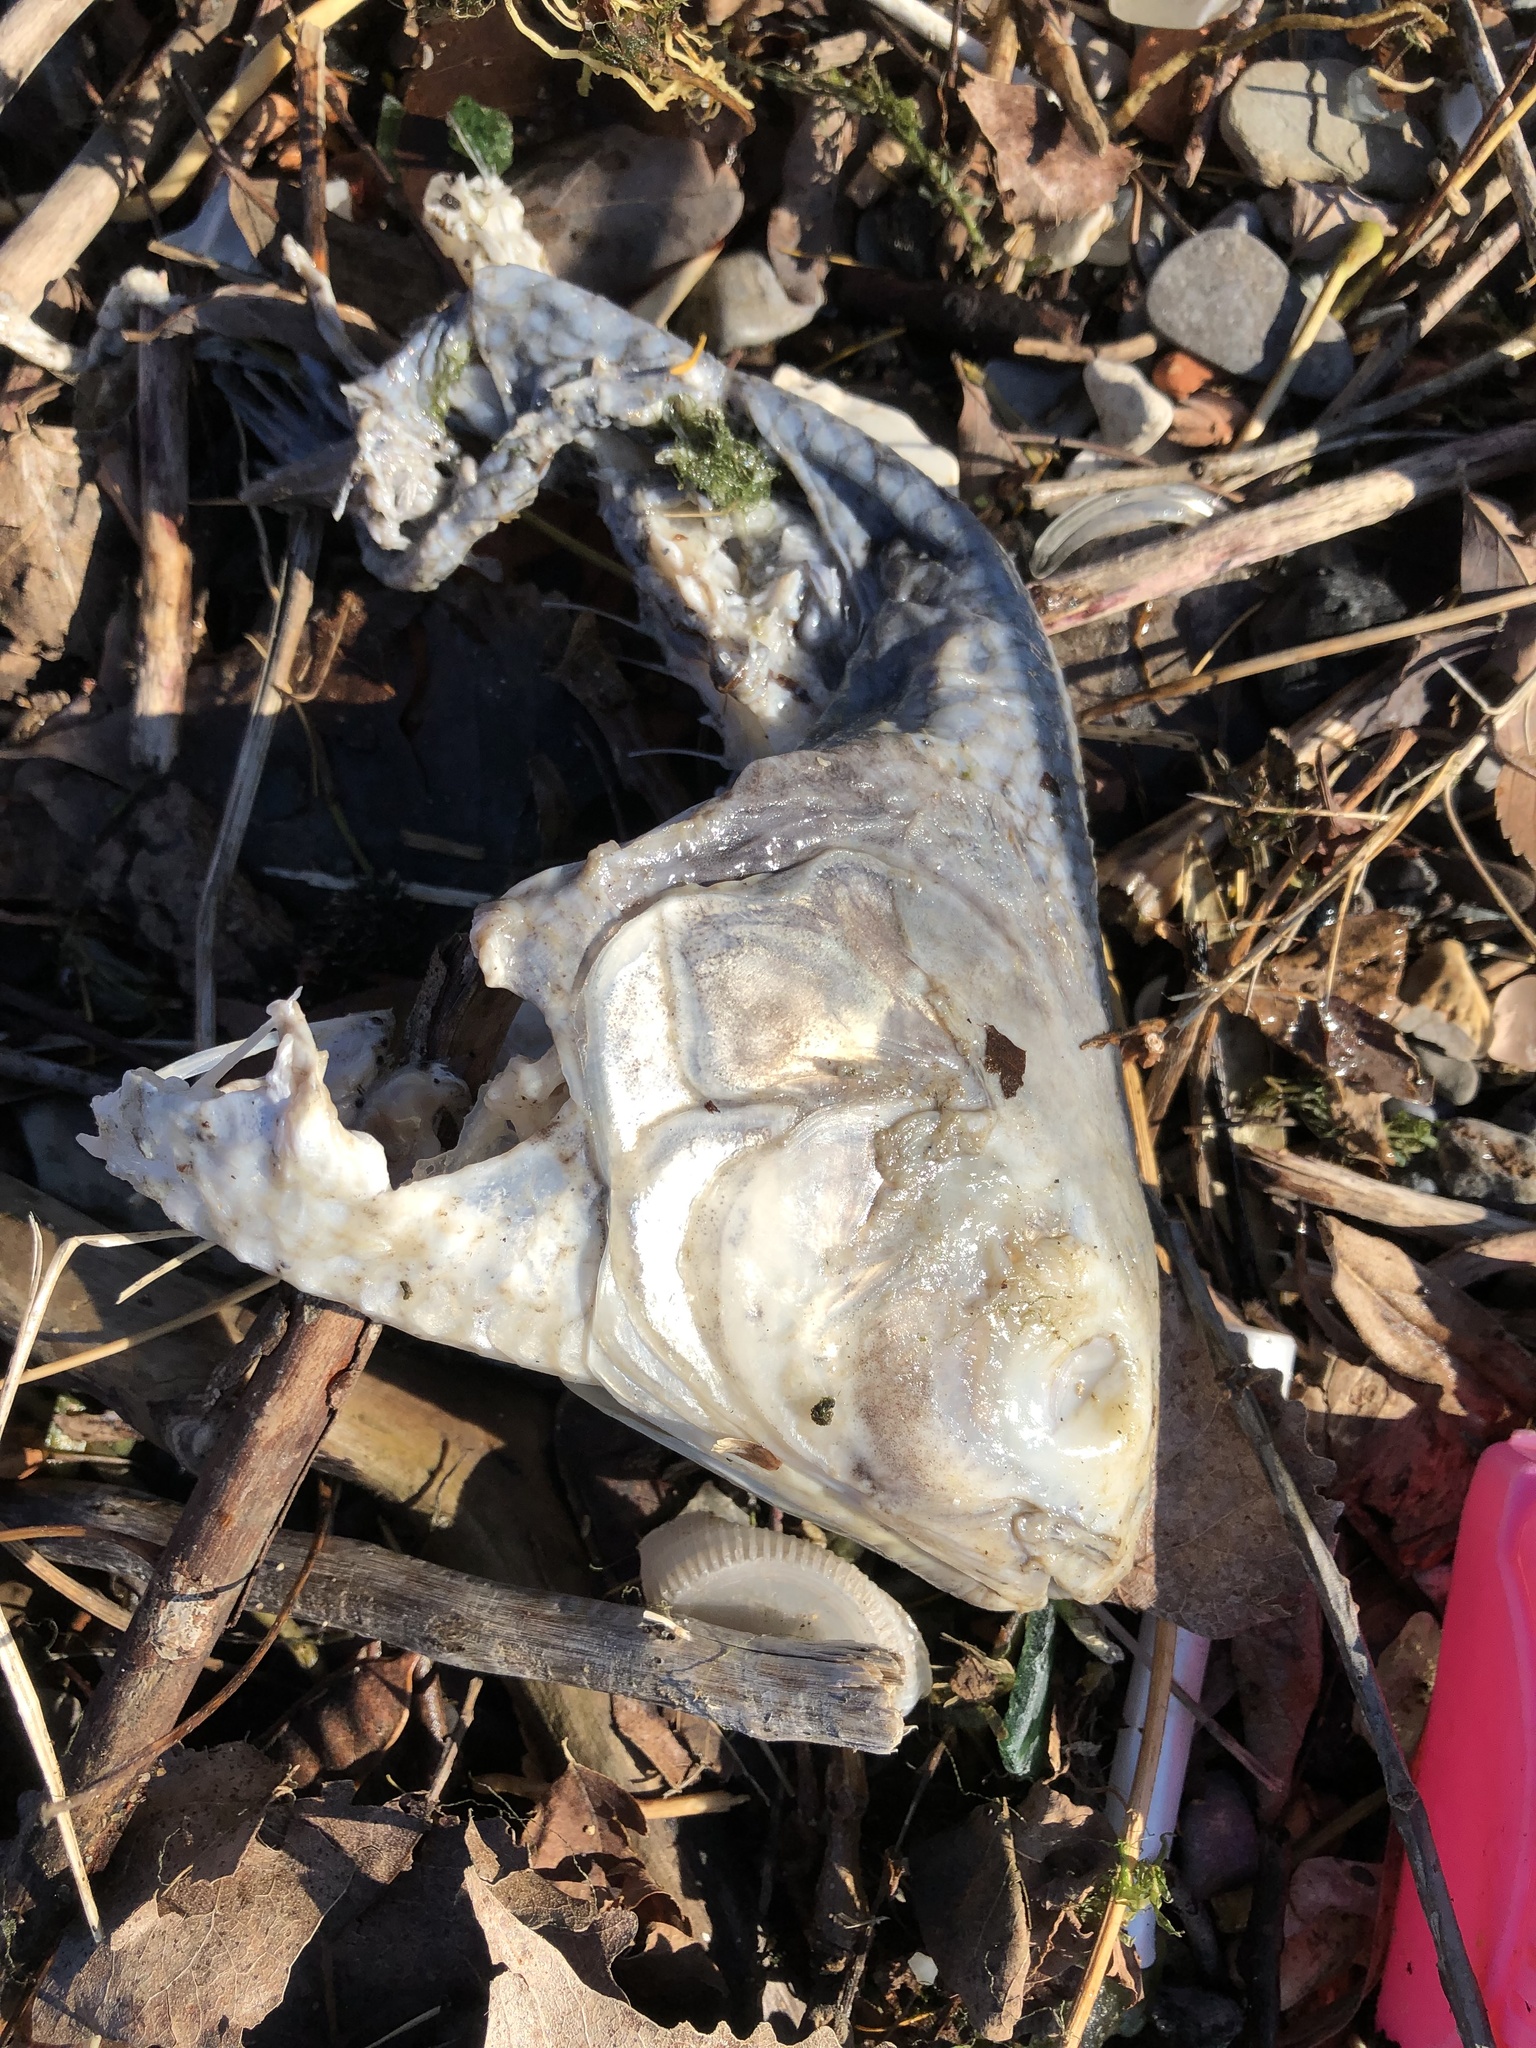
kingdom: Animalia
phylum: Chordata
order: Clupeiformes
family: Clupeidae
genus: Dorosoma
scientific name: Dorosoma cepedianum
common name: Gizzard shad
